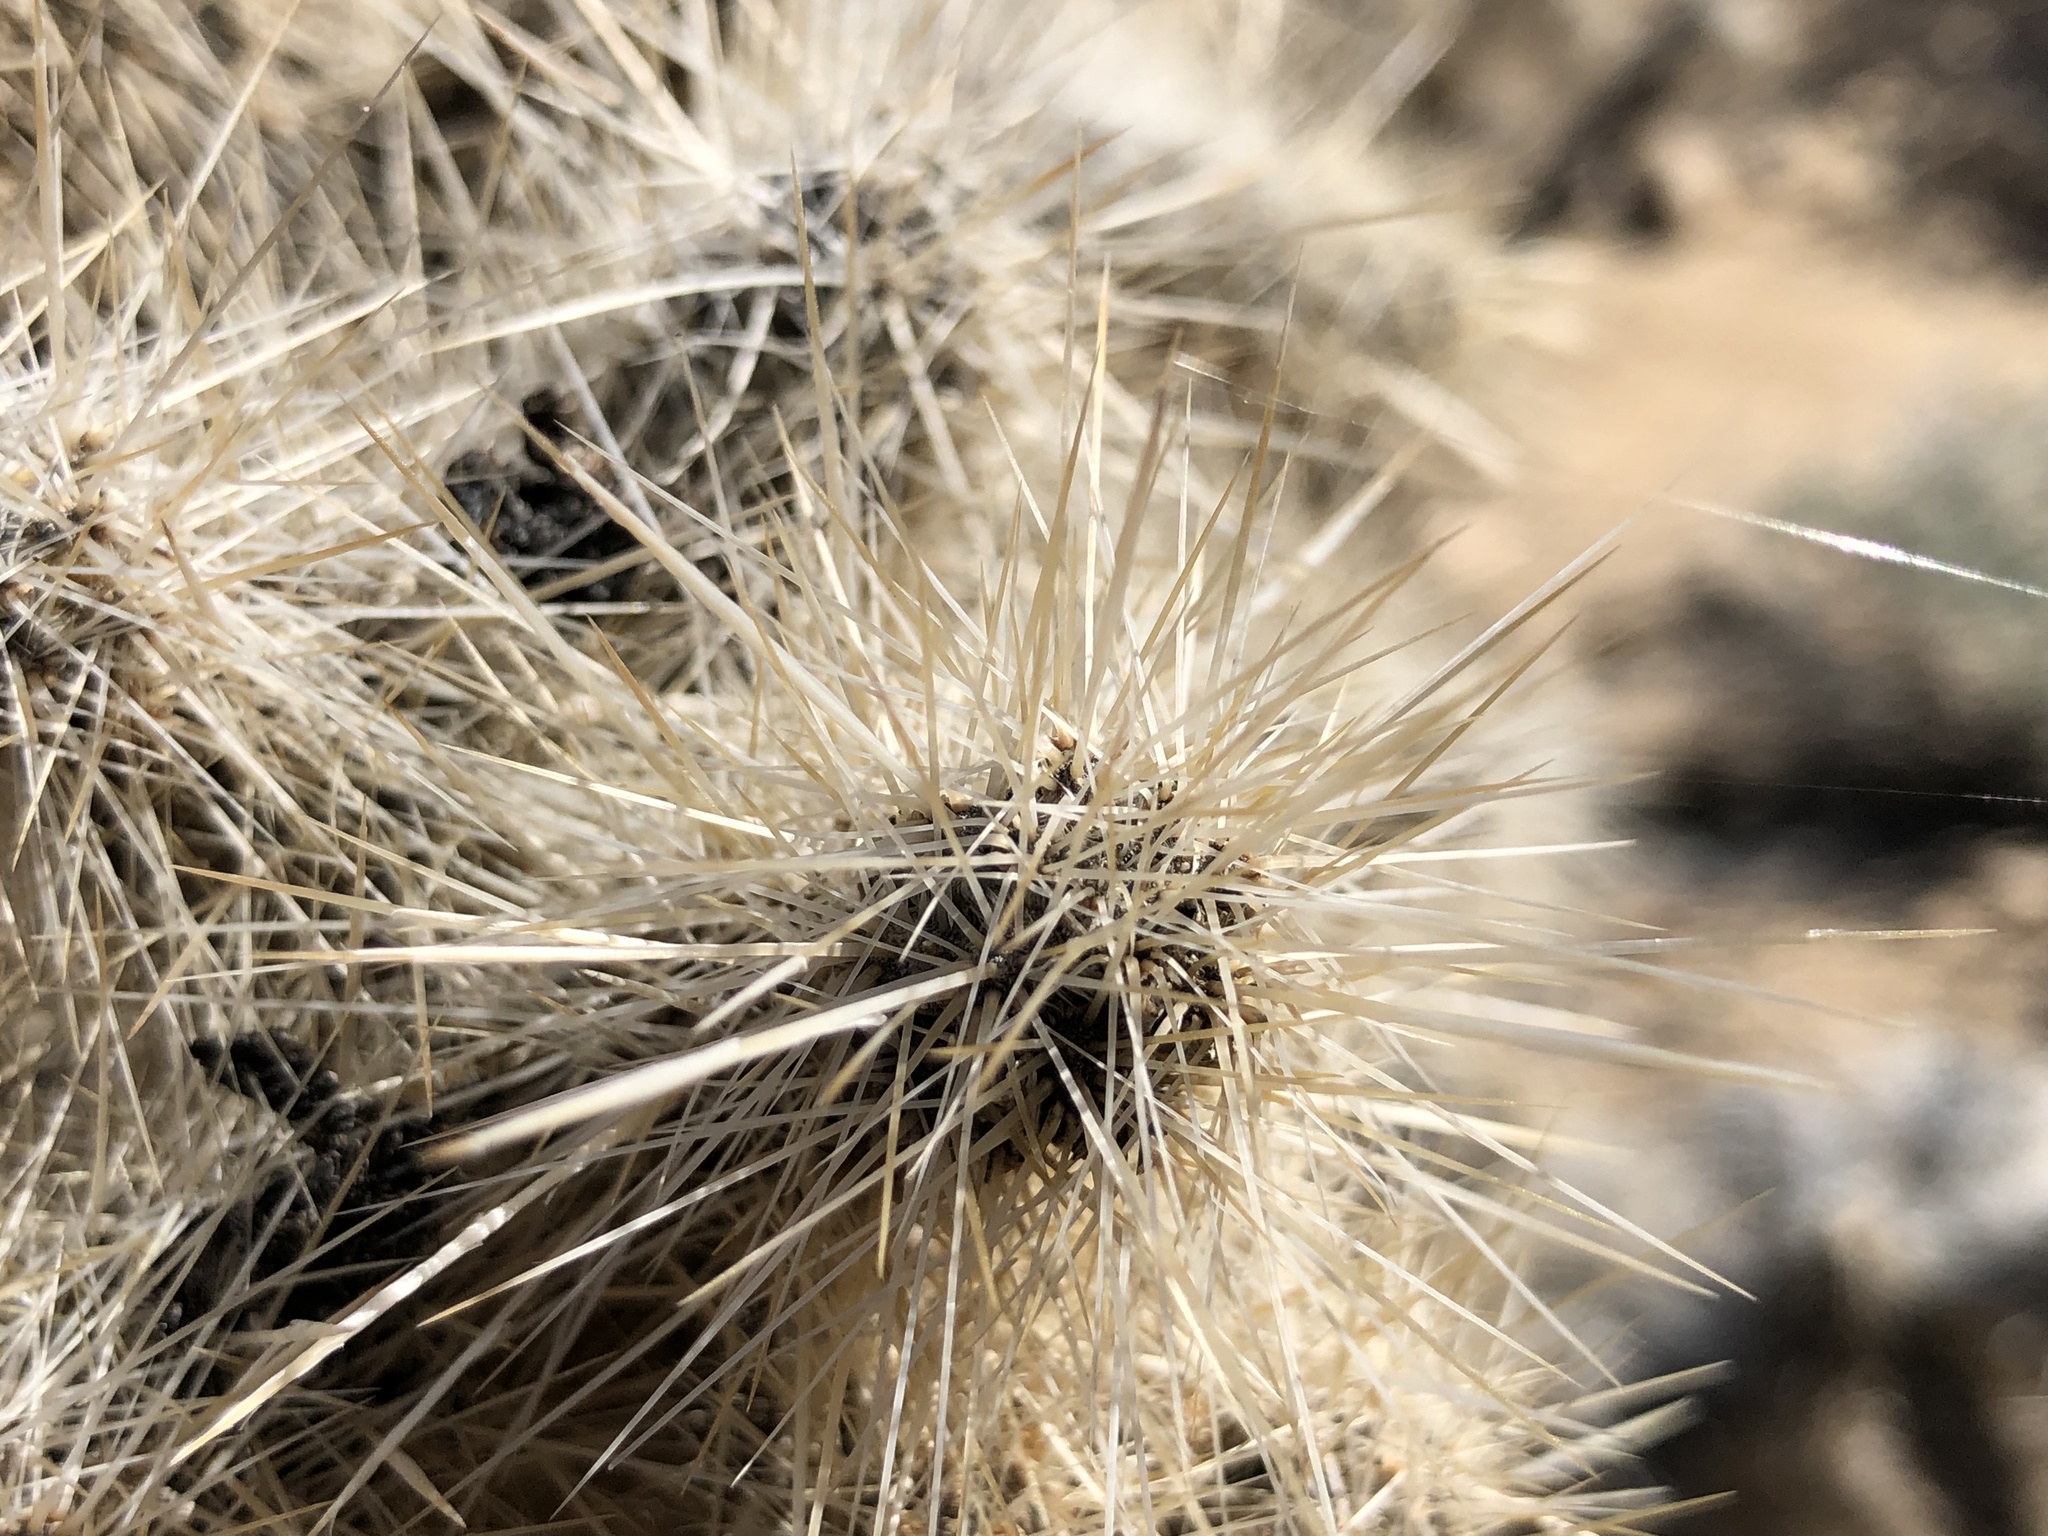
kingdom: Plantae
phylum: Tracheophyta
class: Magnoliopsida
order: Caryophyllales
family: Cactaceae
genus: Cylindropuntia
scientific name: Cylindropuntia echinocarpa
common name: Ground cholla
